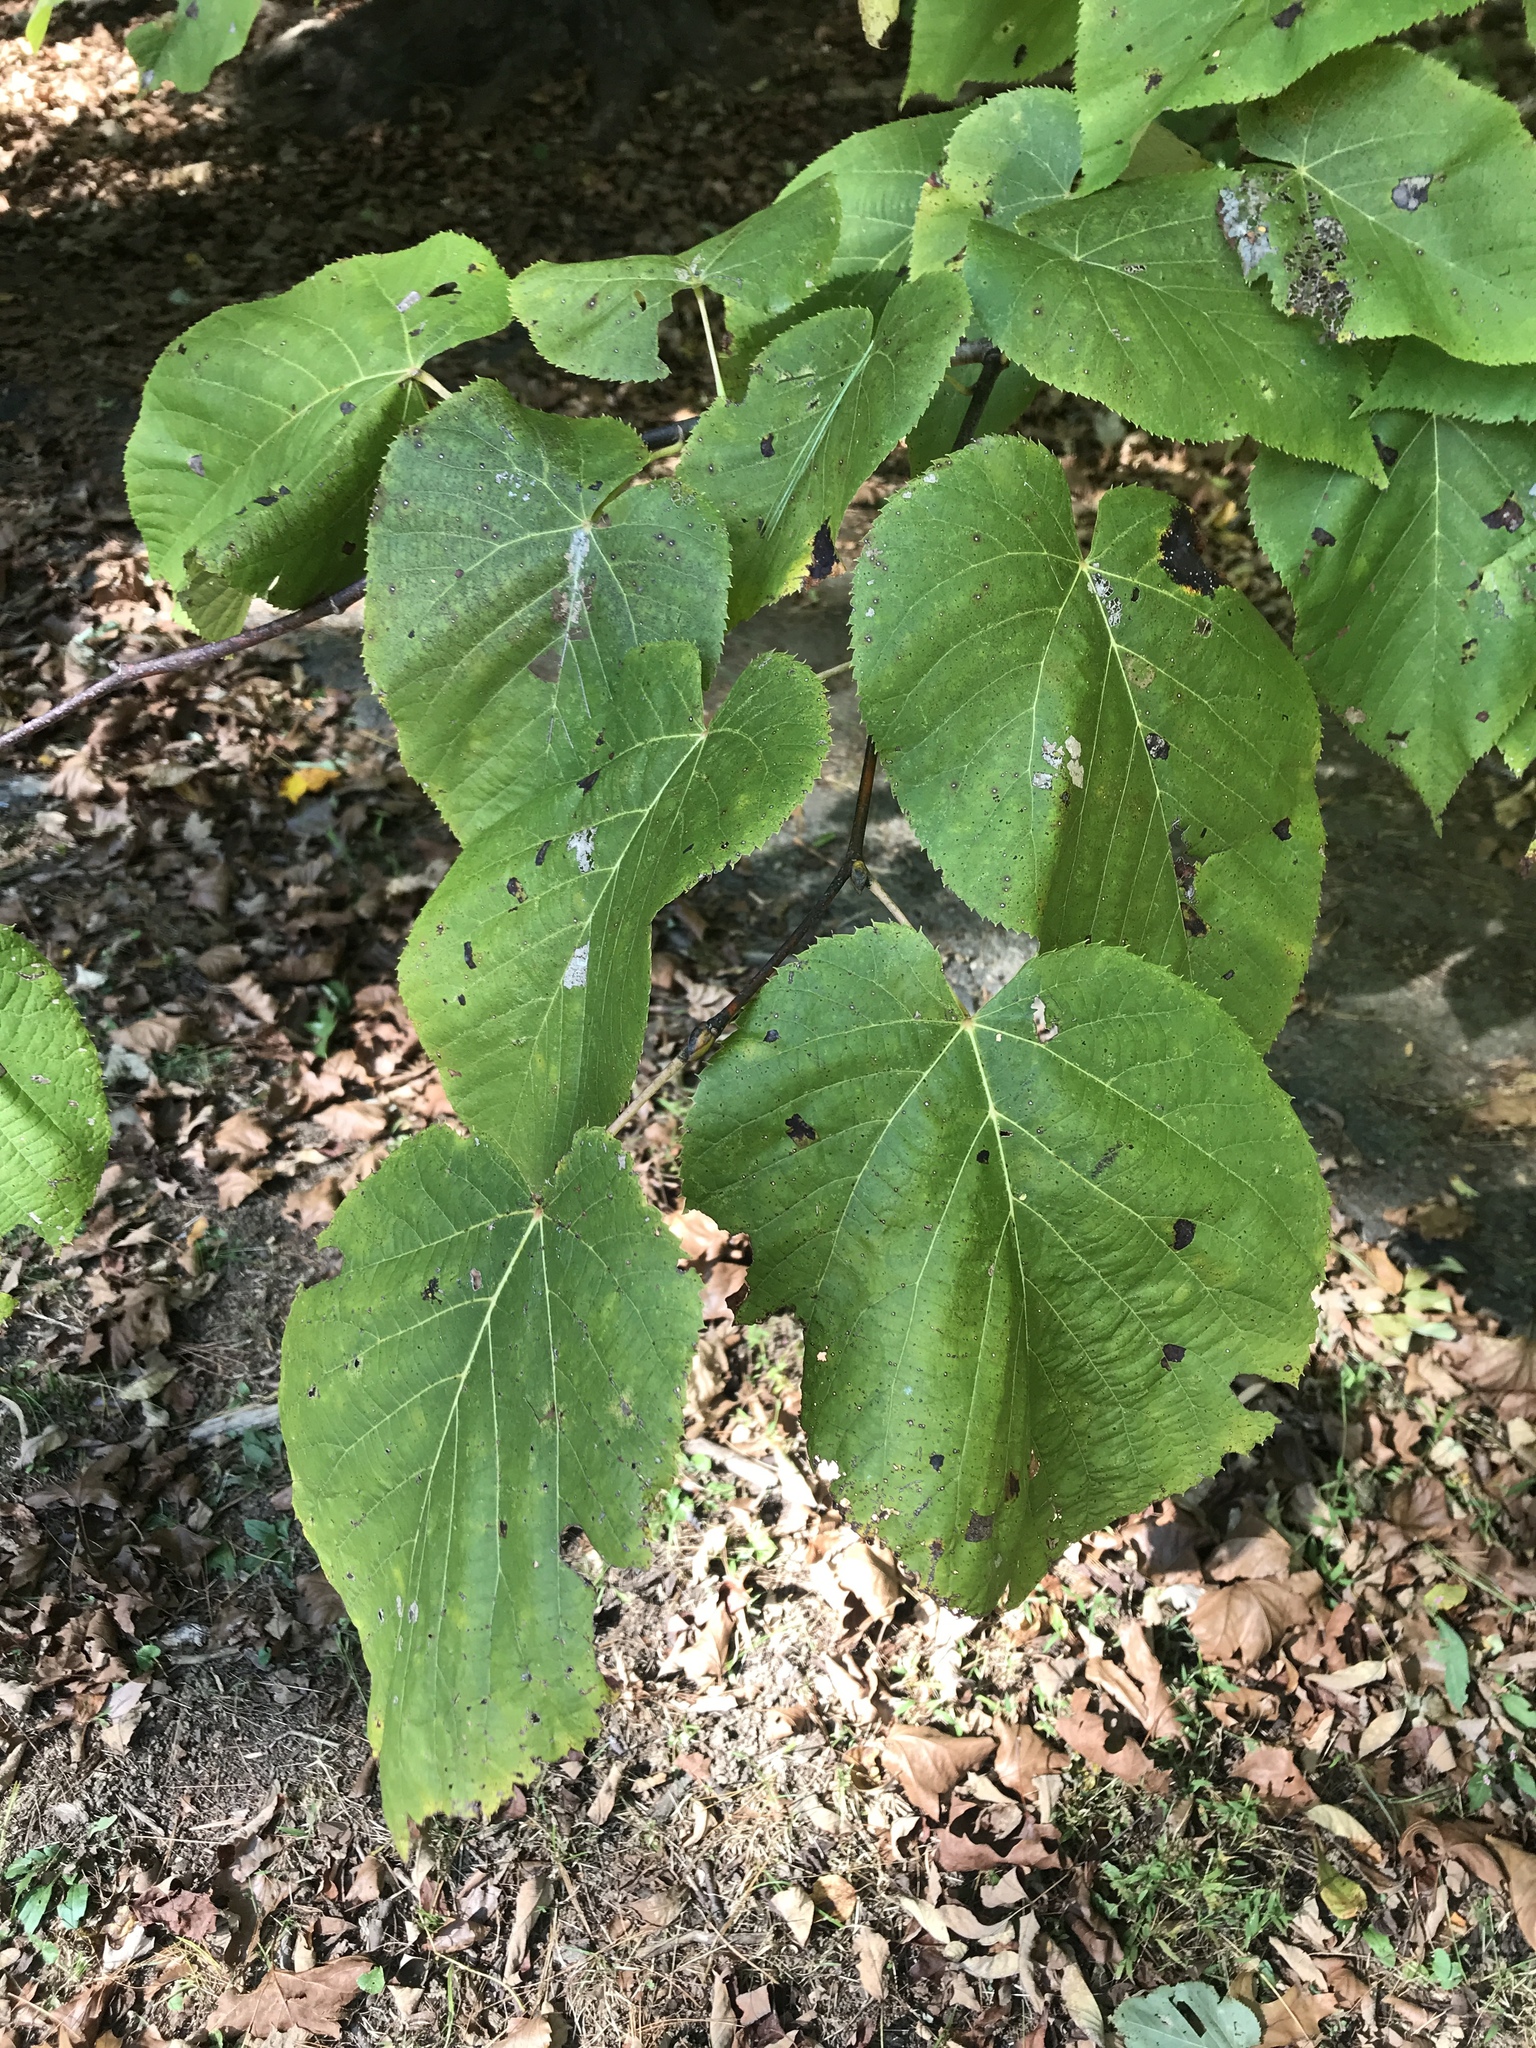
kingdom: Plantae
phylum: Tracheophyta
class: Magnoliopsida
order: Malvales
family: Malvaceae
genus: Tilia
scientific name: Tilia americana
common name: Basswood
